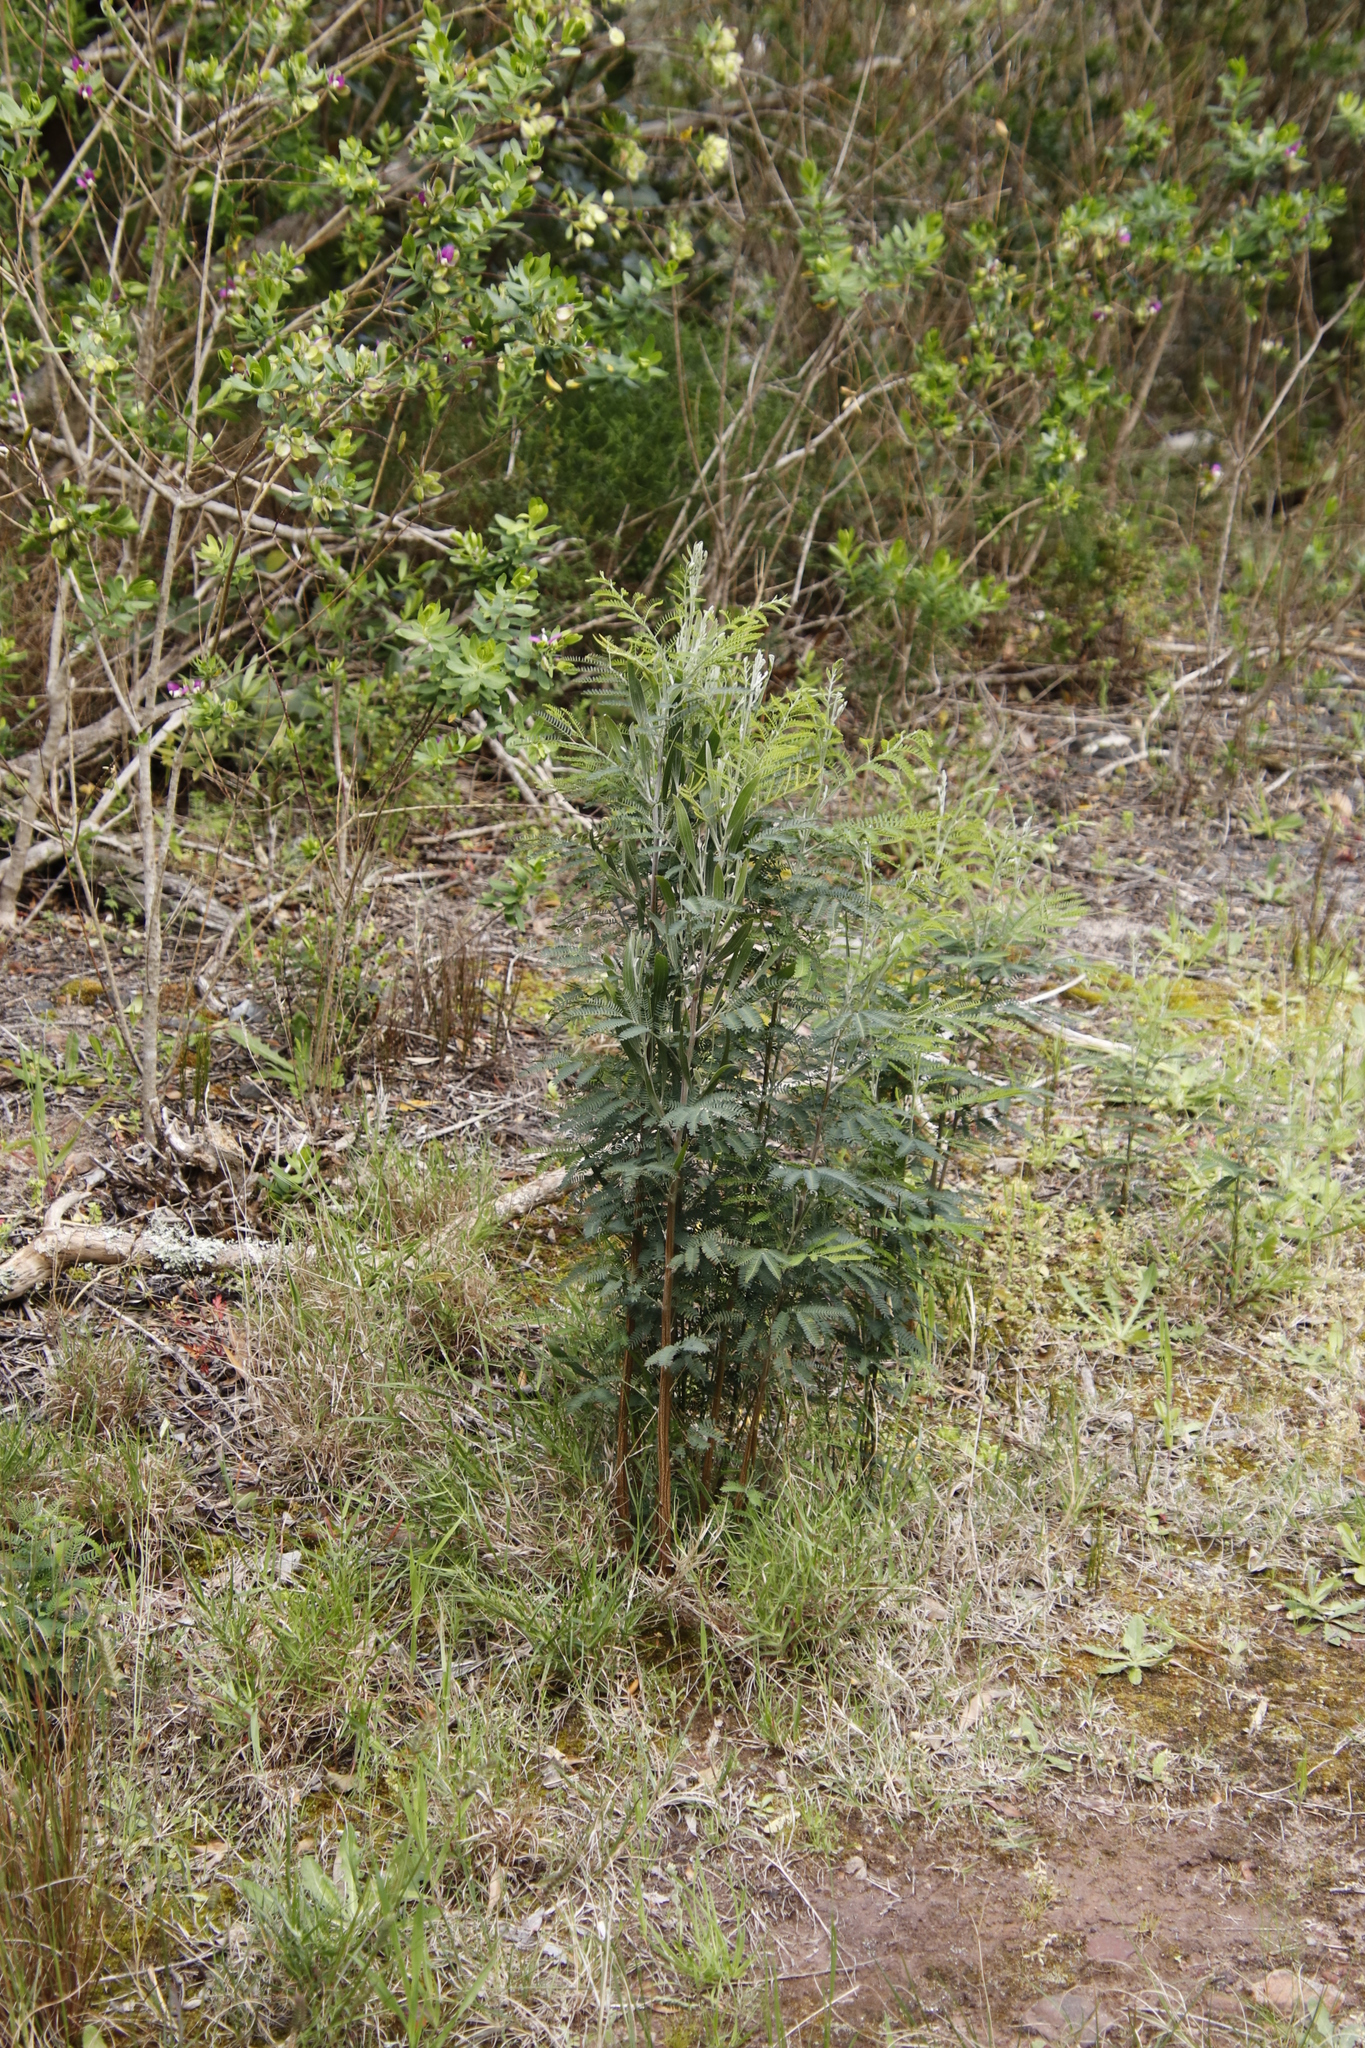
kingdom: Plantae
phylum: Tracheophyta
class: Magnoliopsida
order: Fabales
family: Fabaceae
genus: Acacia
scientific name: Acacia melanoxylon
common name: Blackwood
